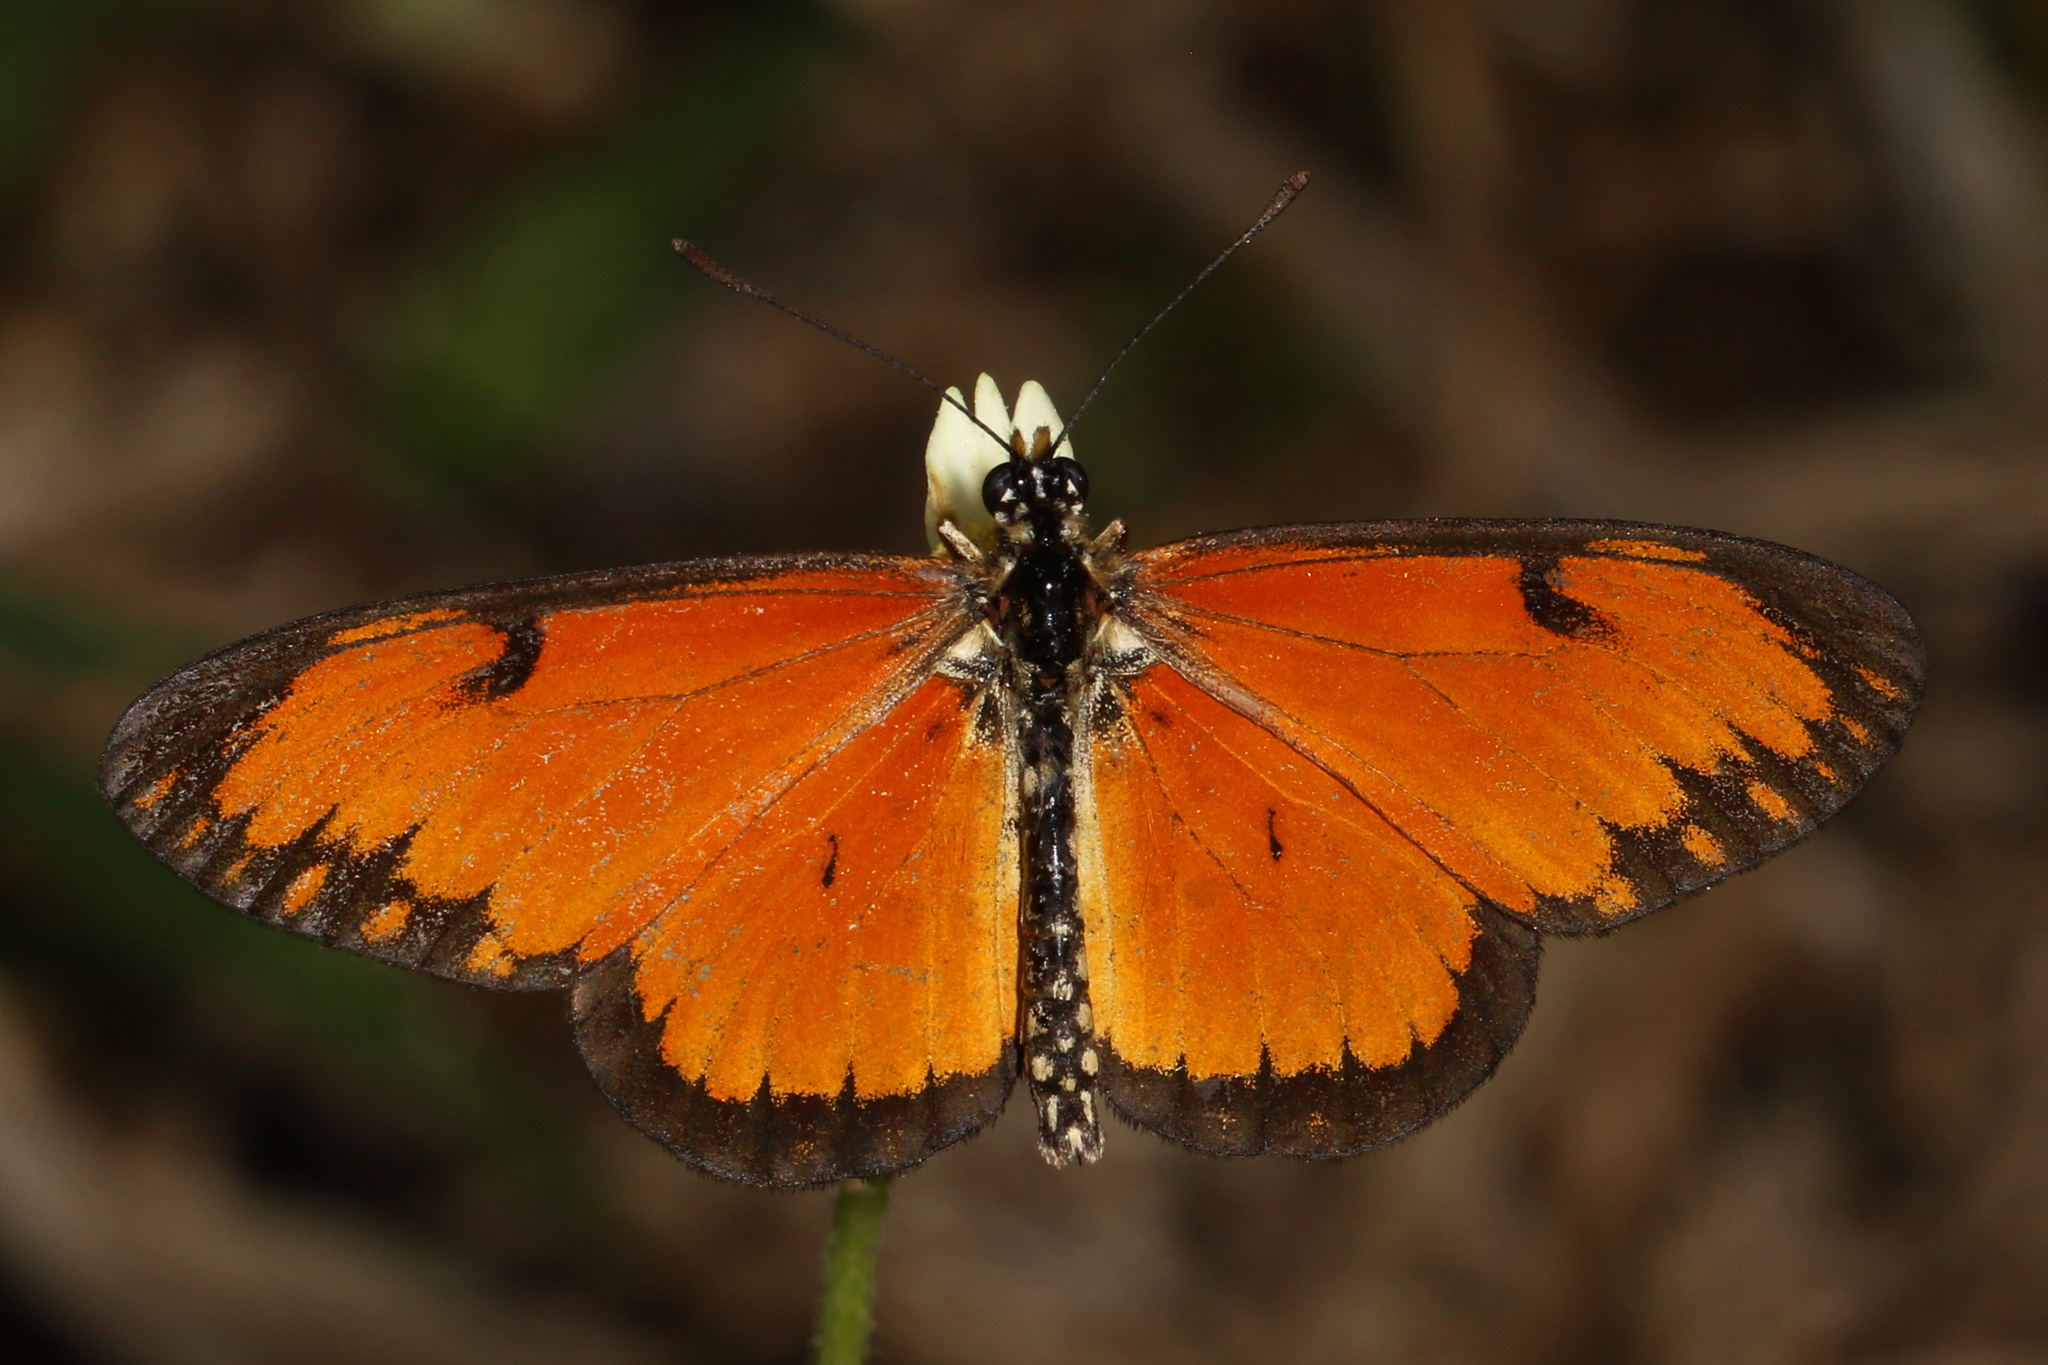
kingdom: Animalia
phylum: Arthropoda
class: Insecta
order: Lepidoptera
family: Nymphalidae
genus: Acraea
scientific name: Acraea Telchinia serena
